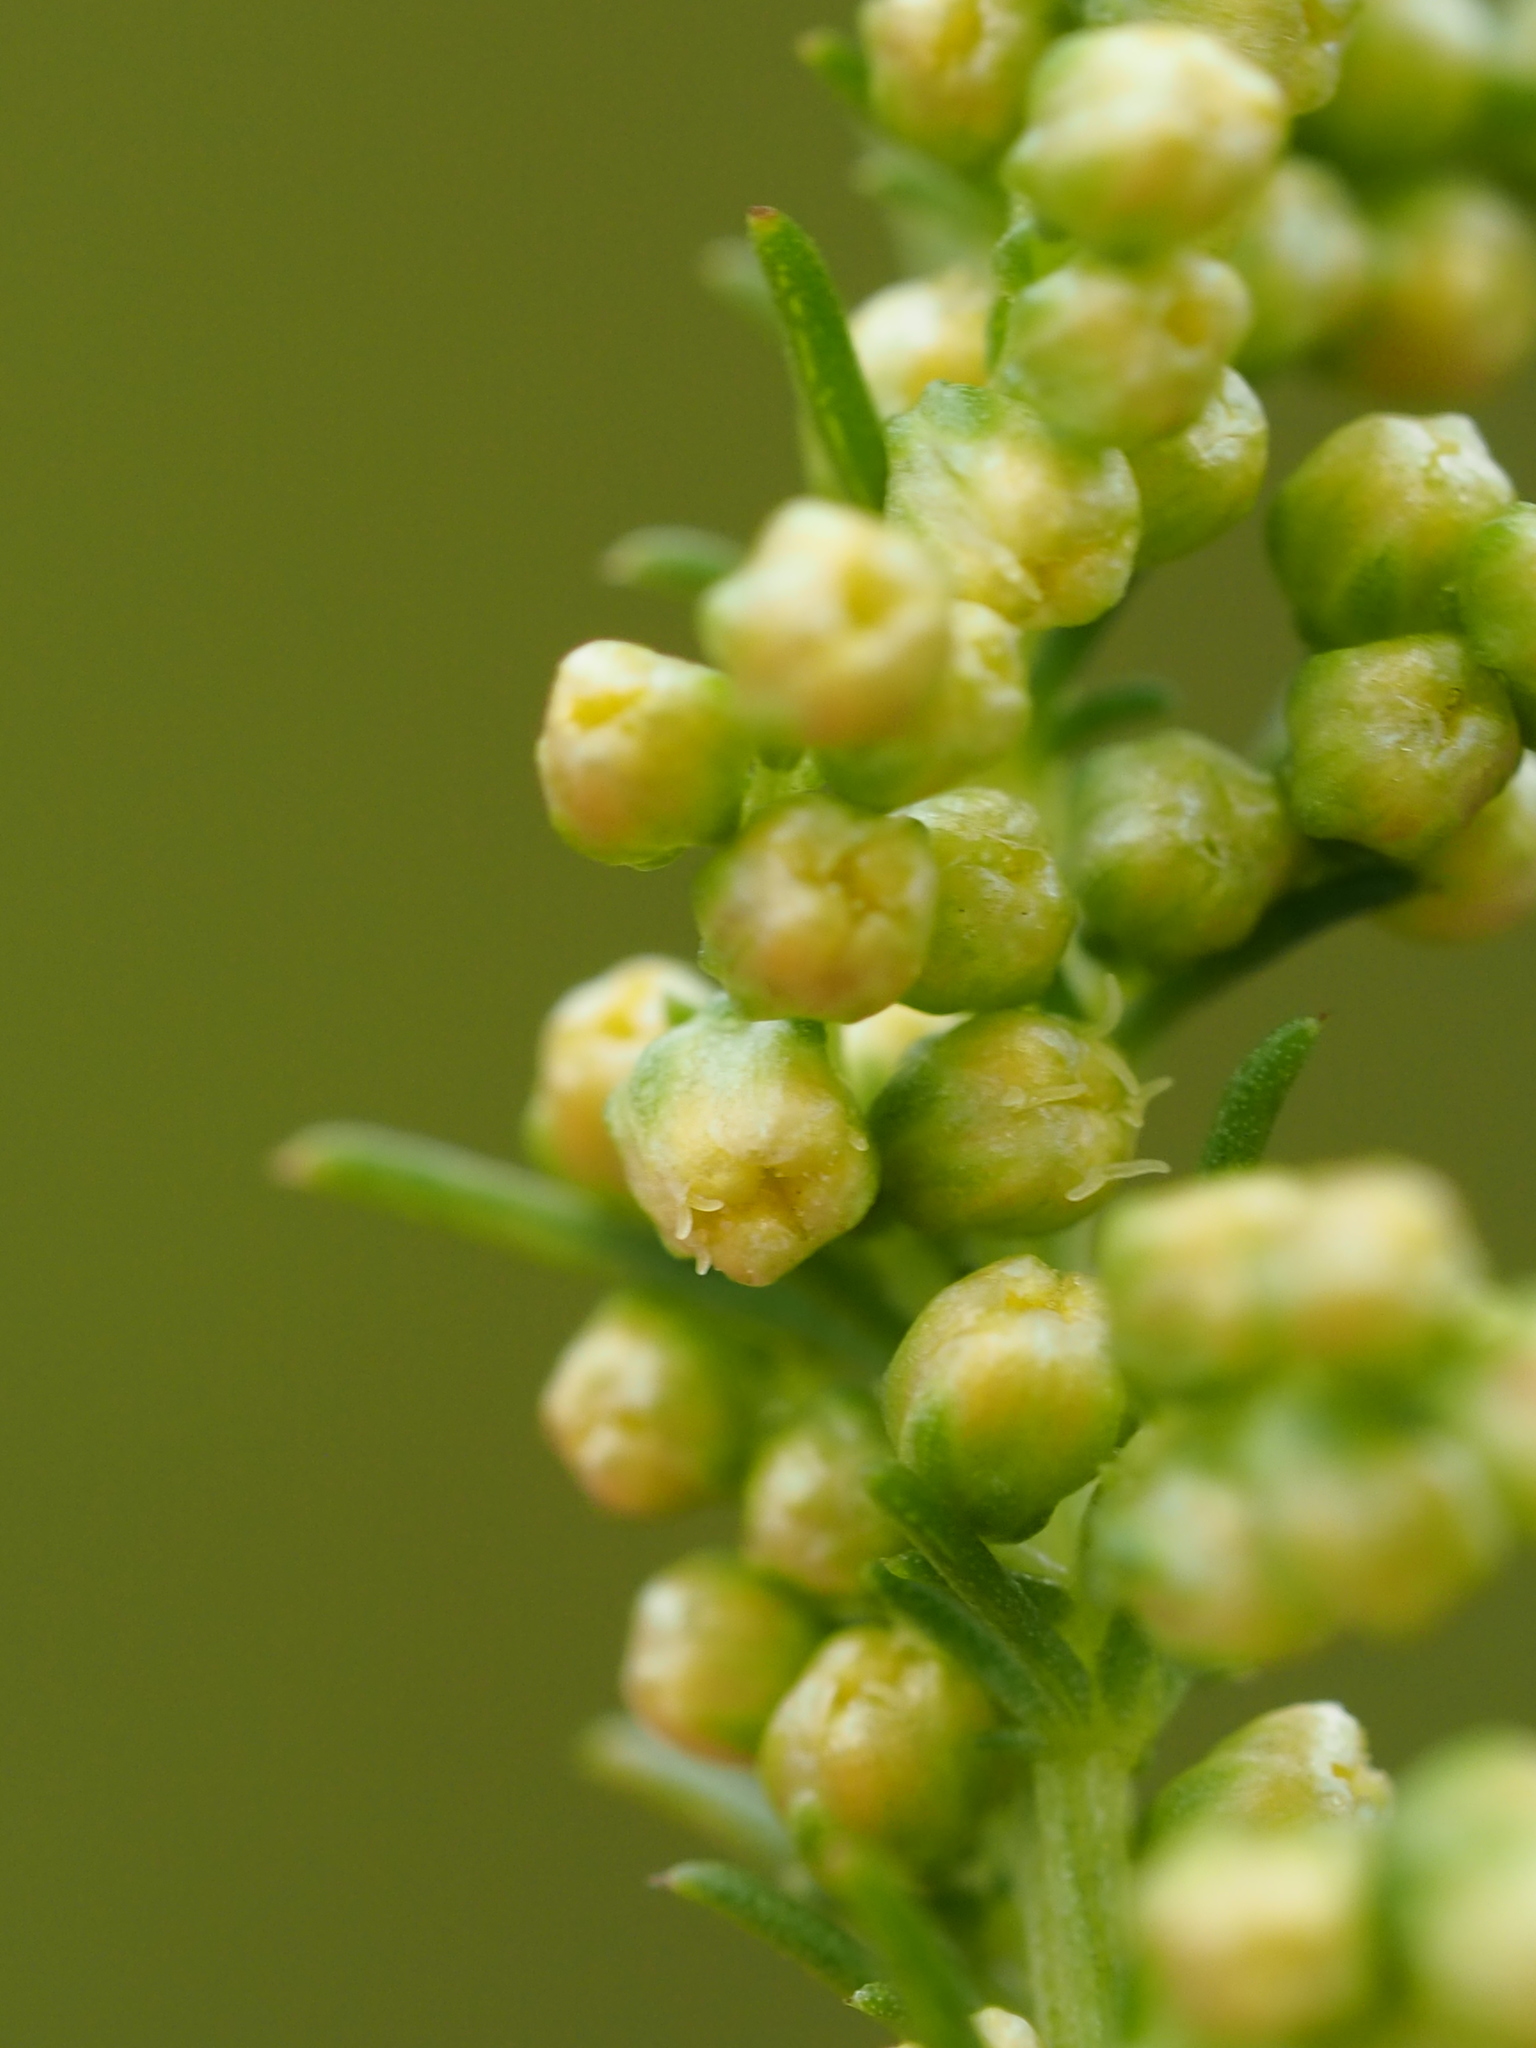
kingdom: Plantae
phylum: Tracheophyta
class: Magnoliopsida
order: Asterales
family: Asteraceae
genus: Artemisia
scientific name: Artemisia capillaris
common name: Yin-chen wormwood
